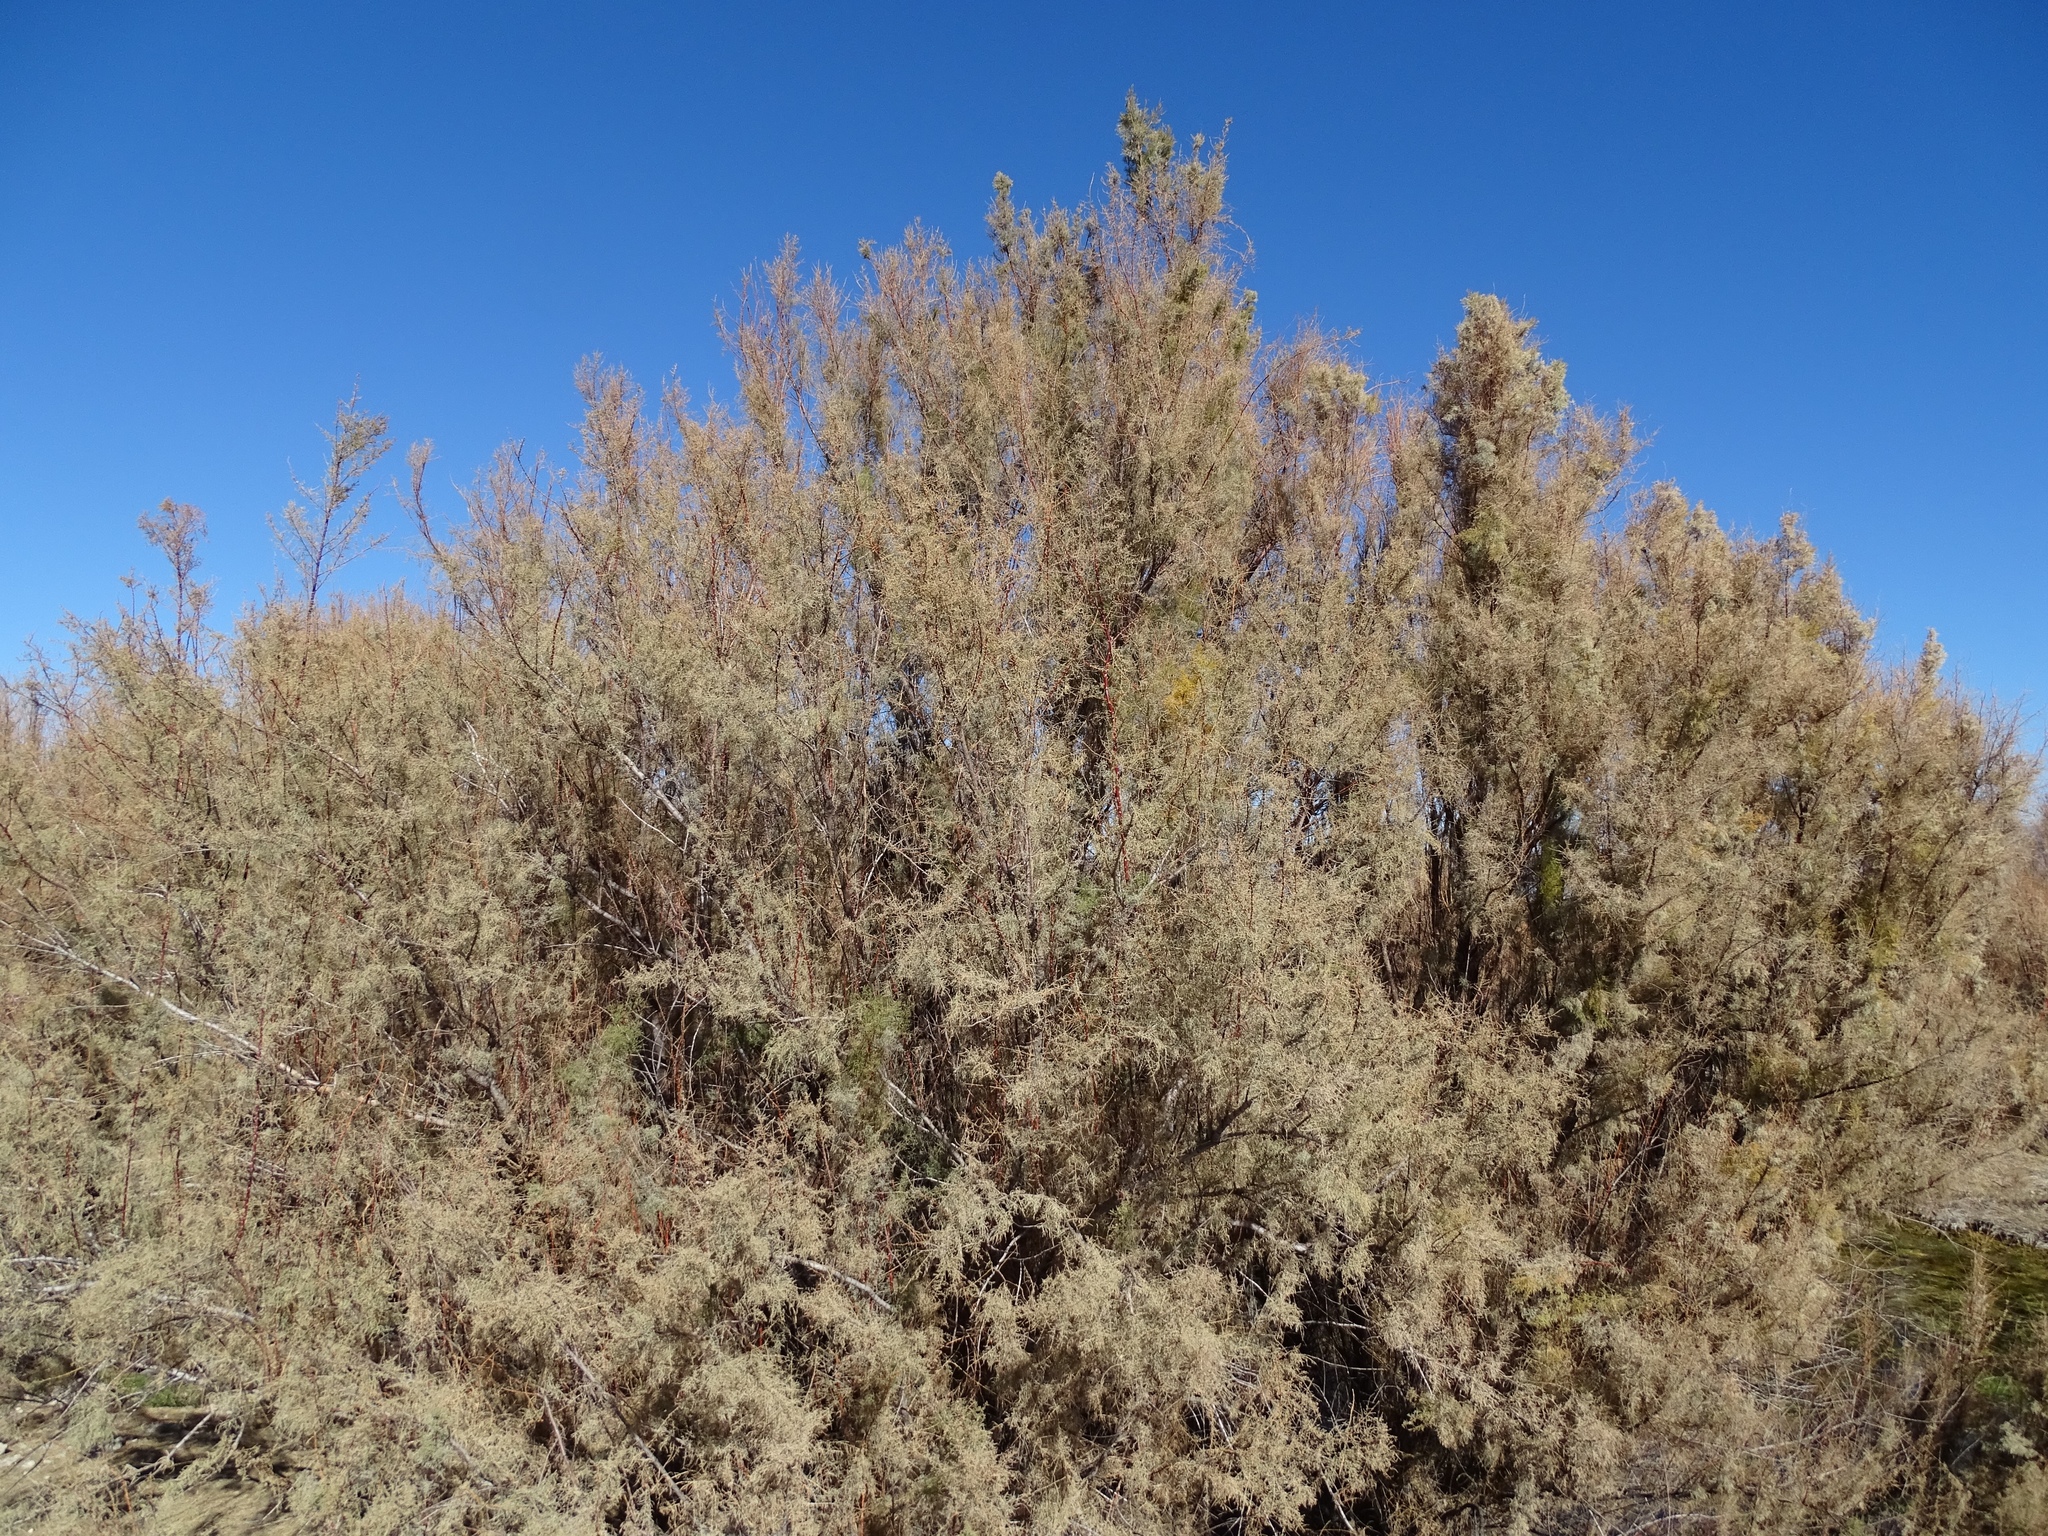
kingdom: Plantae
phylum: Tracheophyta
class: Magnoliopsida
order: Caryophyllales
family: Tamaricaceae
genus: Tamarix
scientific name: Tamarix ramosissima
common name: Pink tamarisk
